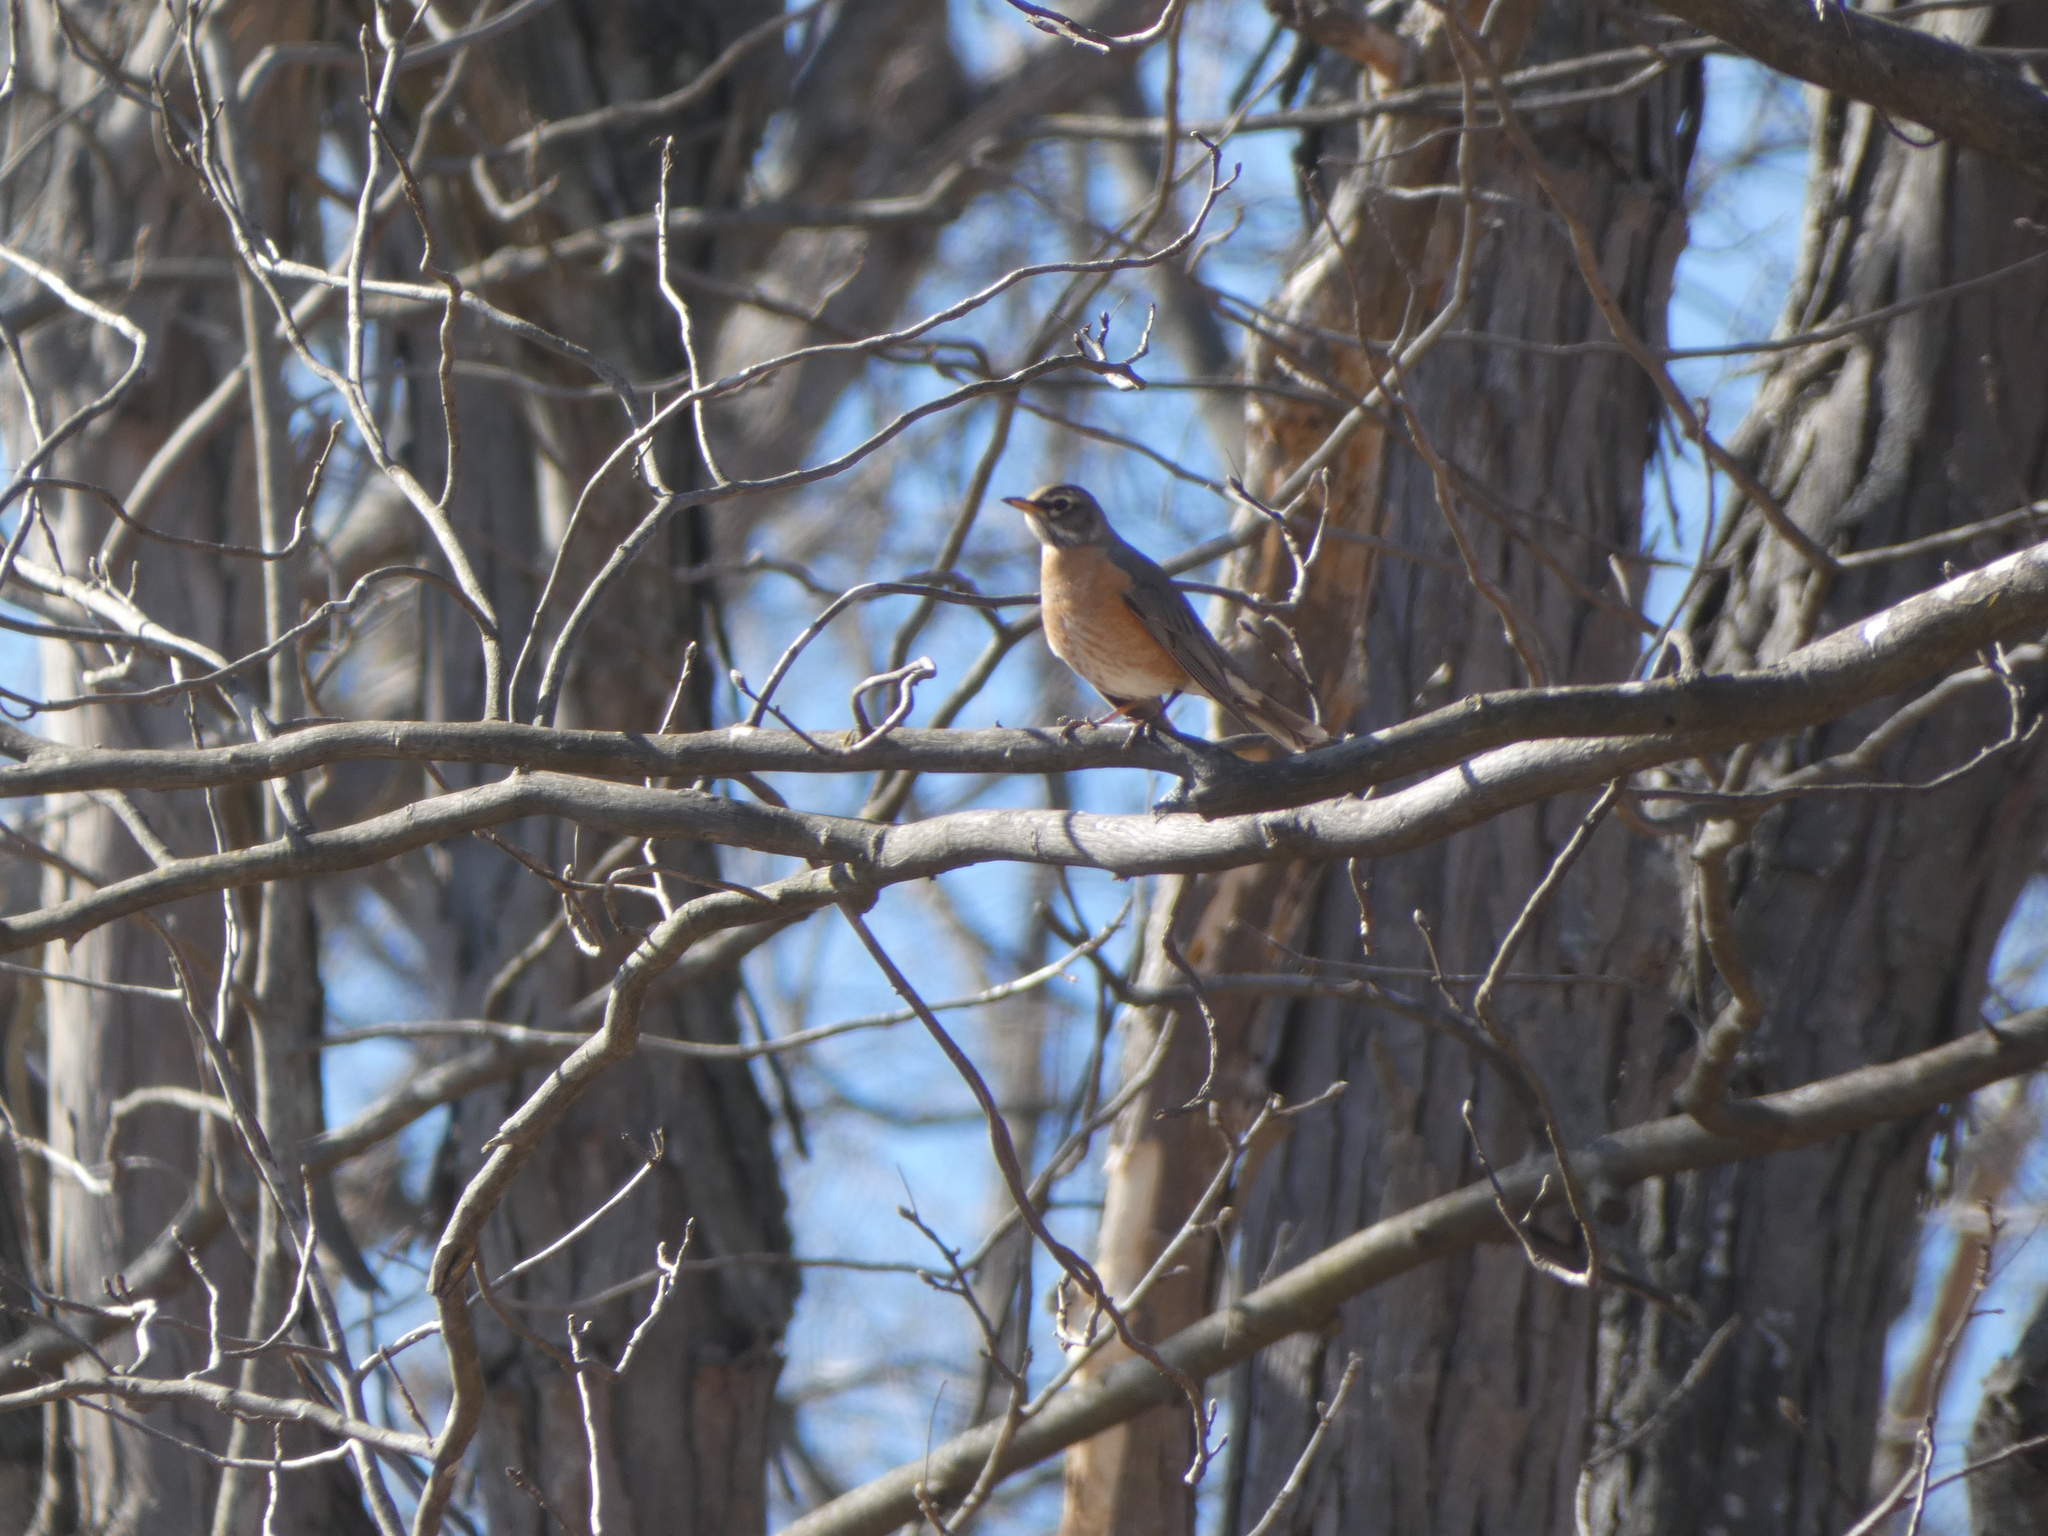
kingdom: Animalia
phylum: Chordata
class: Aves
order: Passeriformes
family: Turdidae
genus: Turdus
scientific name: Turdus migratorius
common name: American robin
